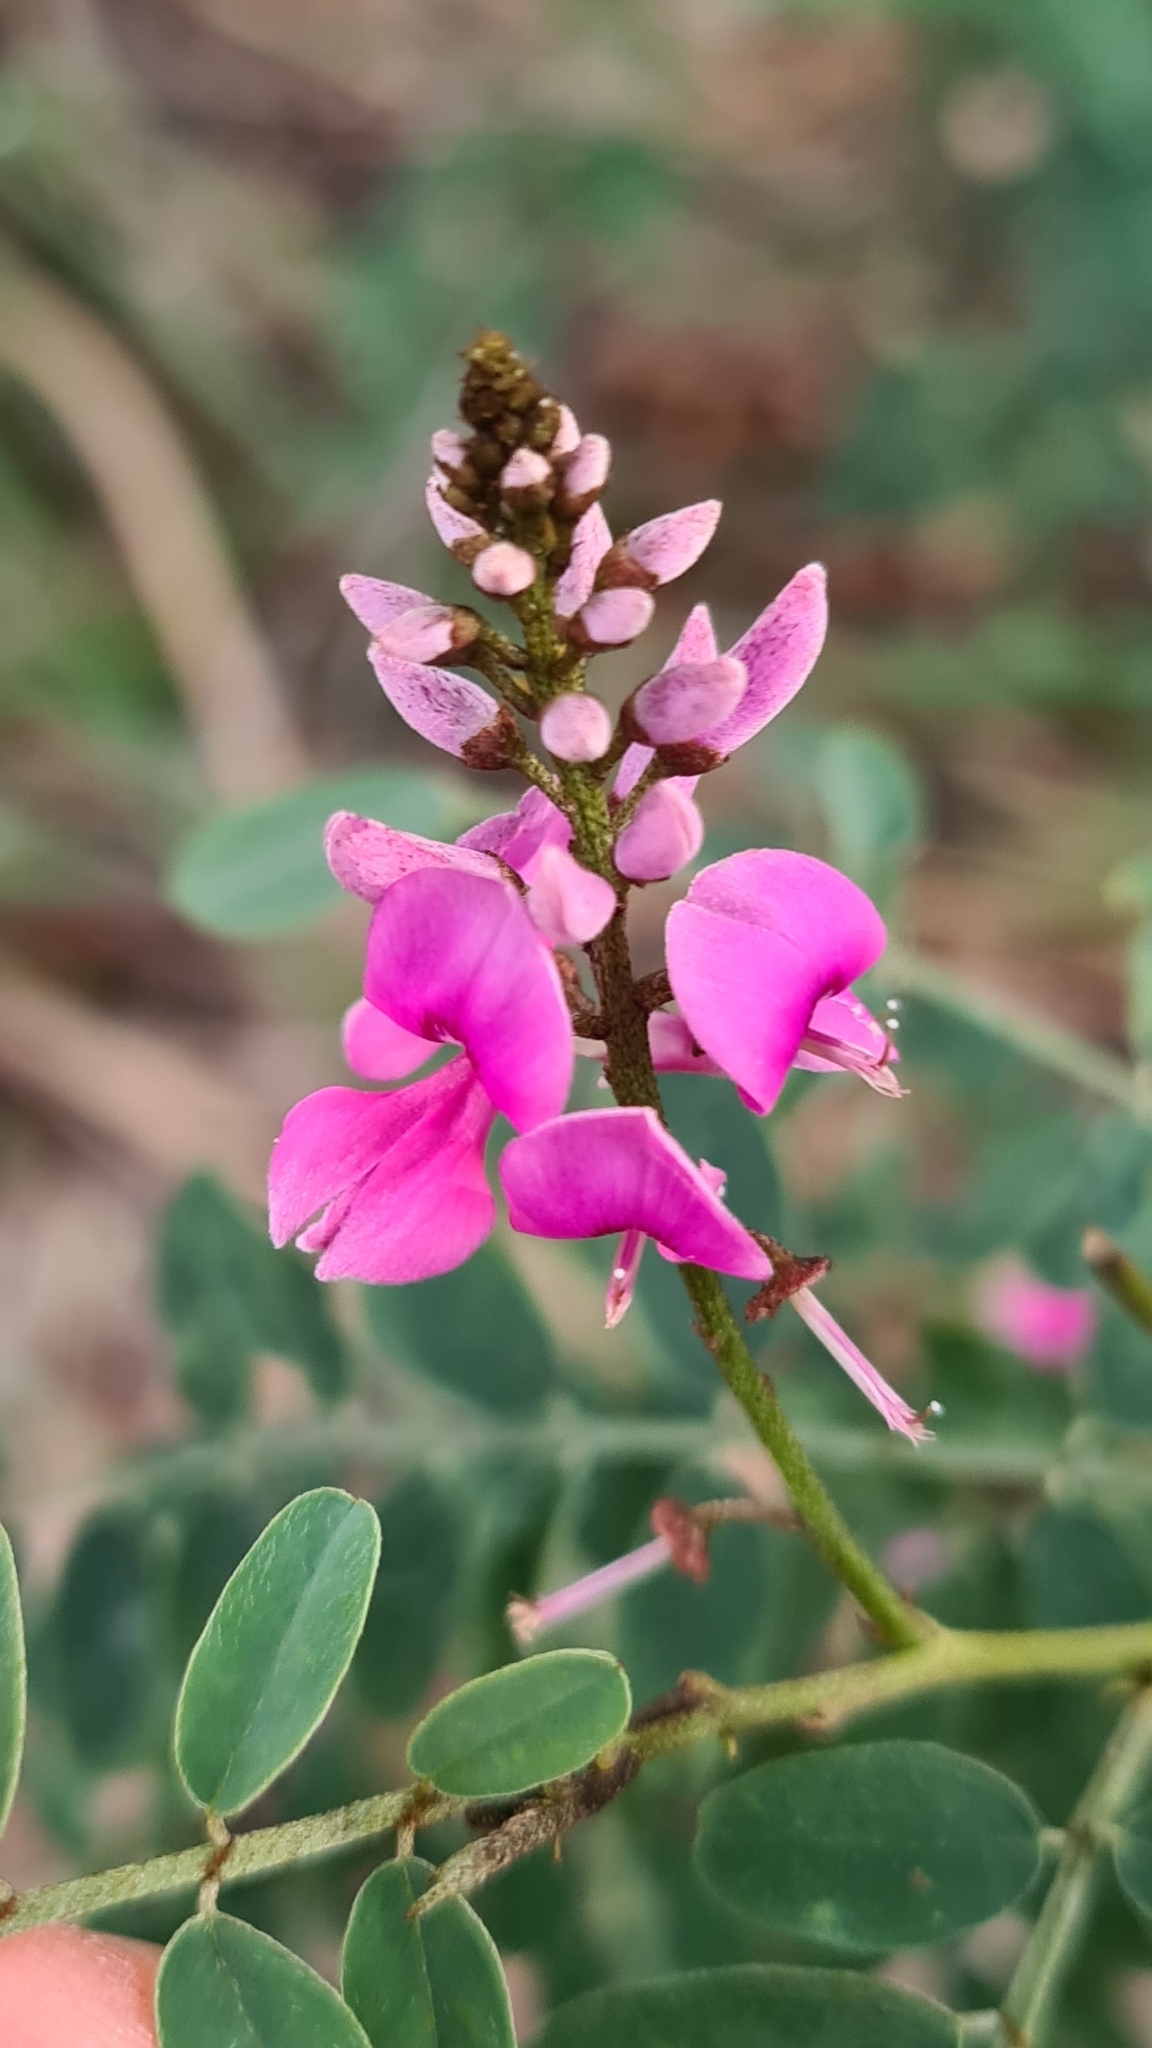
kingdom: Plantae
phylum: Tracheophyta
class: Magnoliopsida
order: Fabales
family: Fabaceae
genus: Indigofera
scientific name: Indigofera australis
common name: Australian indigo
